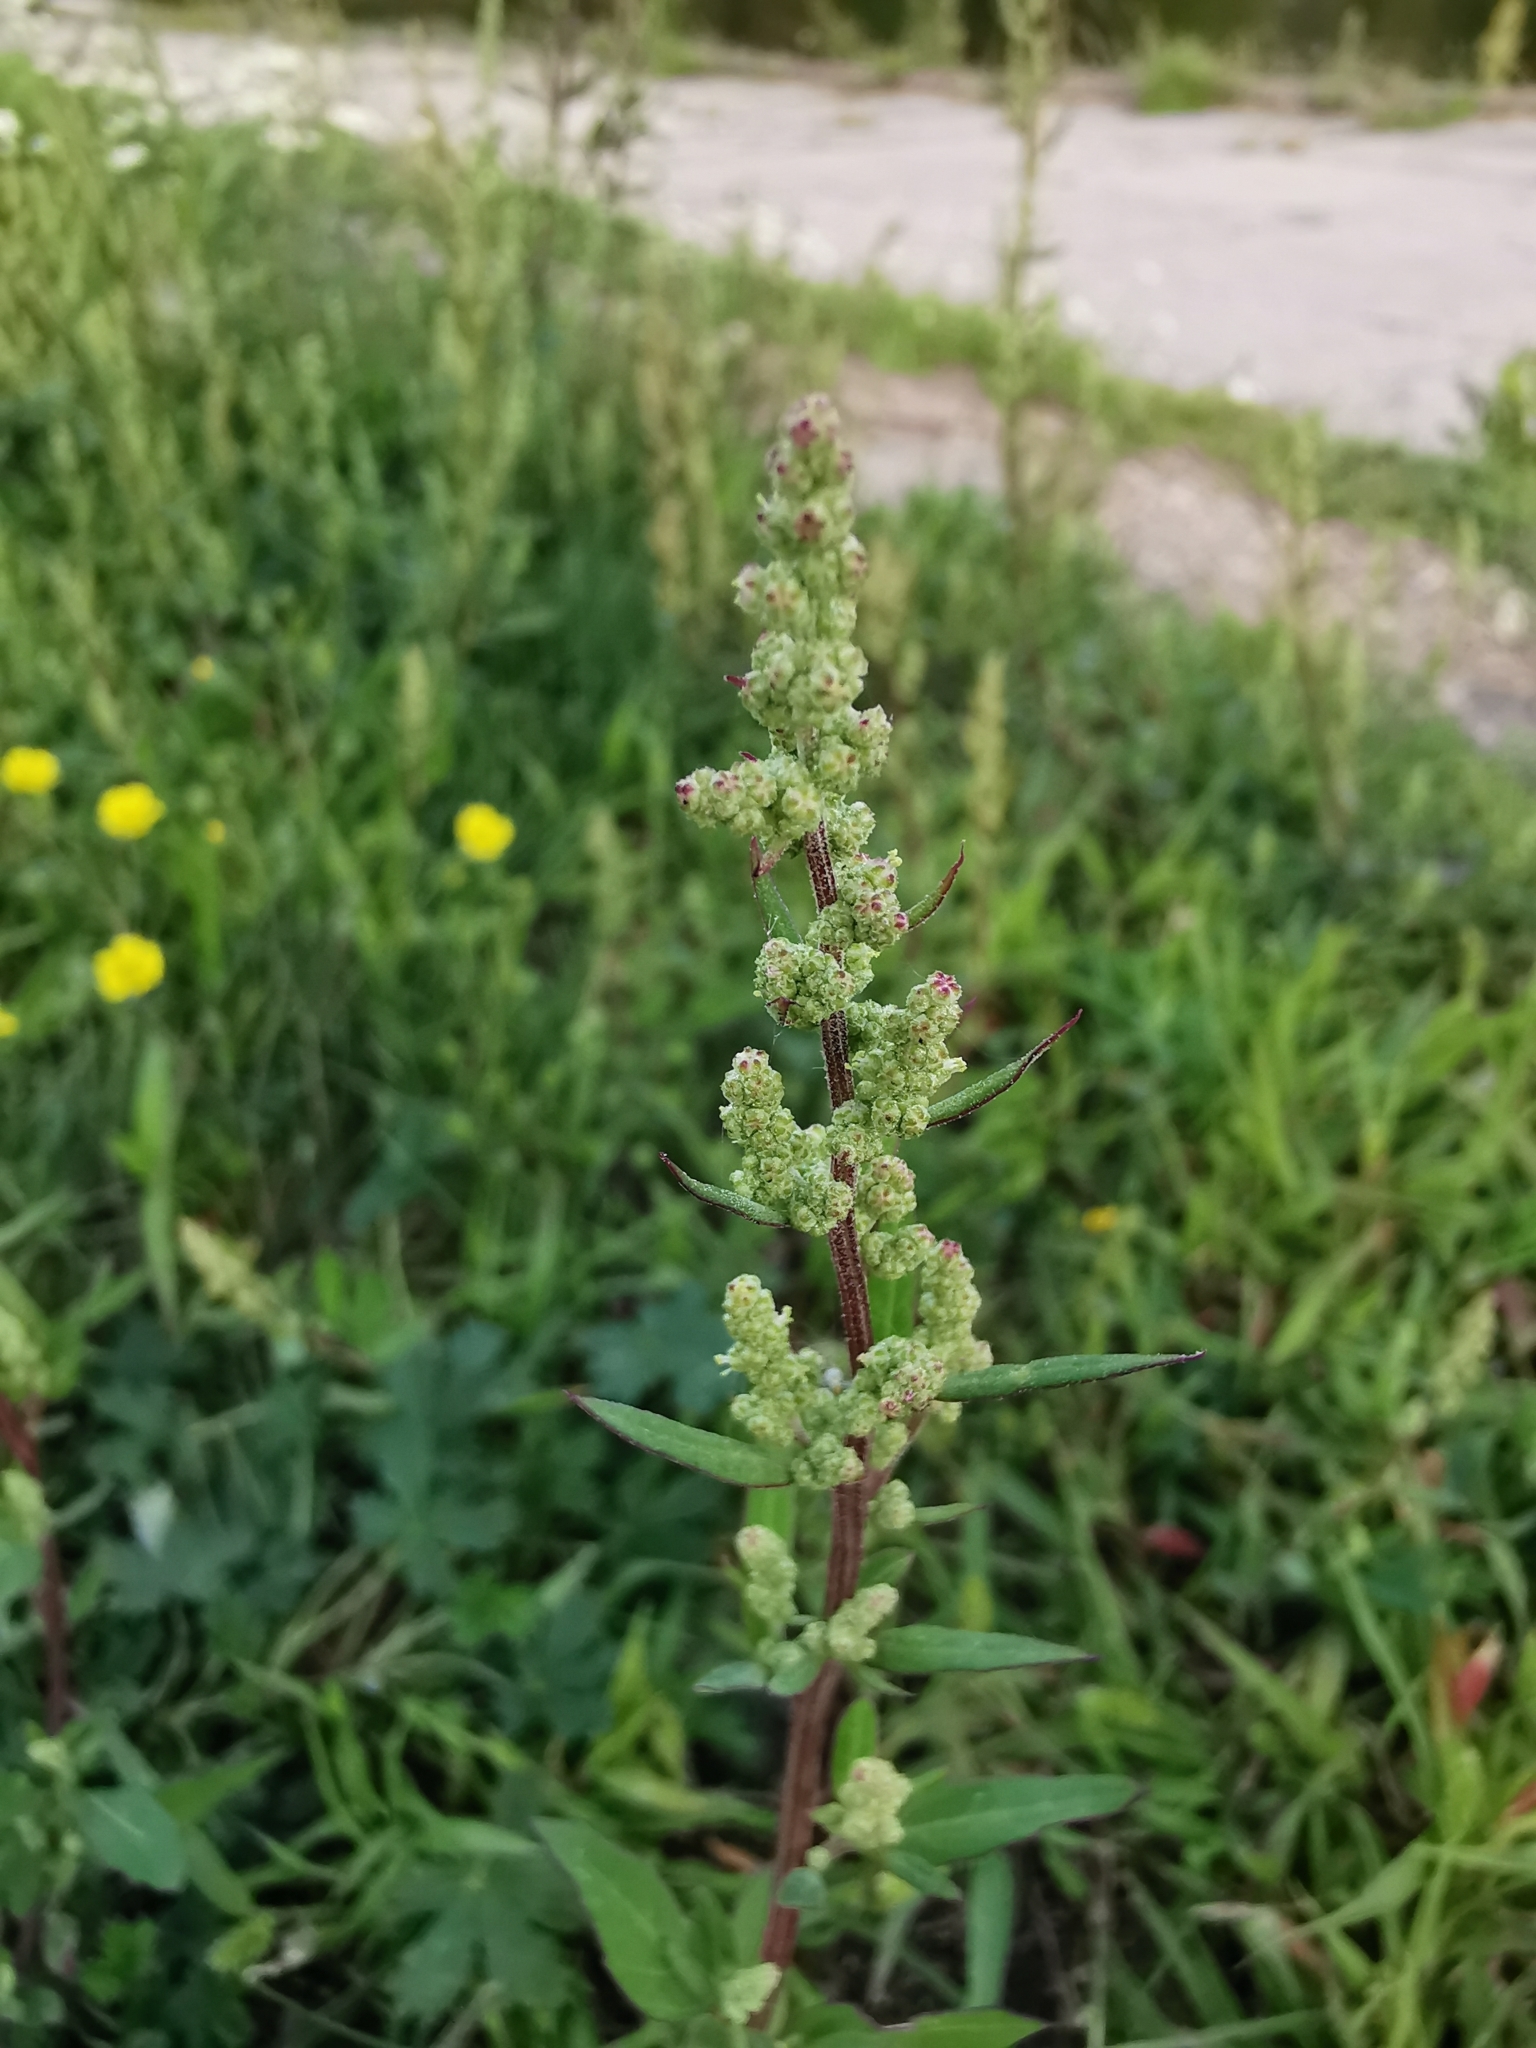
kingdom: Plantae
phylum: Tracheophyta
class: Magnoliopsida
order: Caryophyllales
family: Amaranthaceae
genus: Chenopodium
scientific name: Chenopodium betaceum
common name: Striped goosefoot
